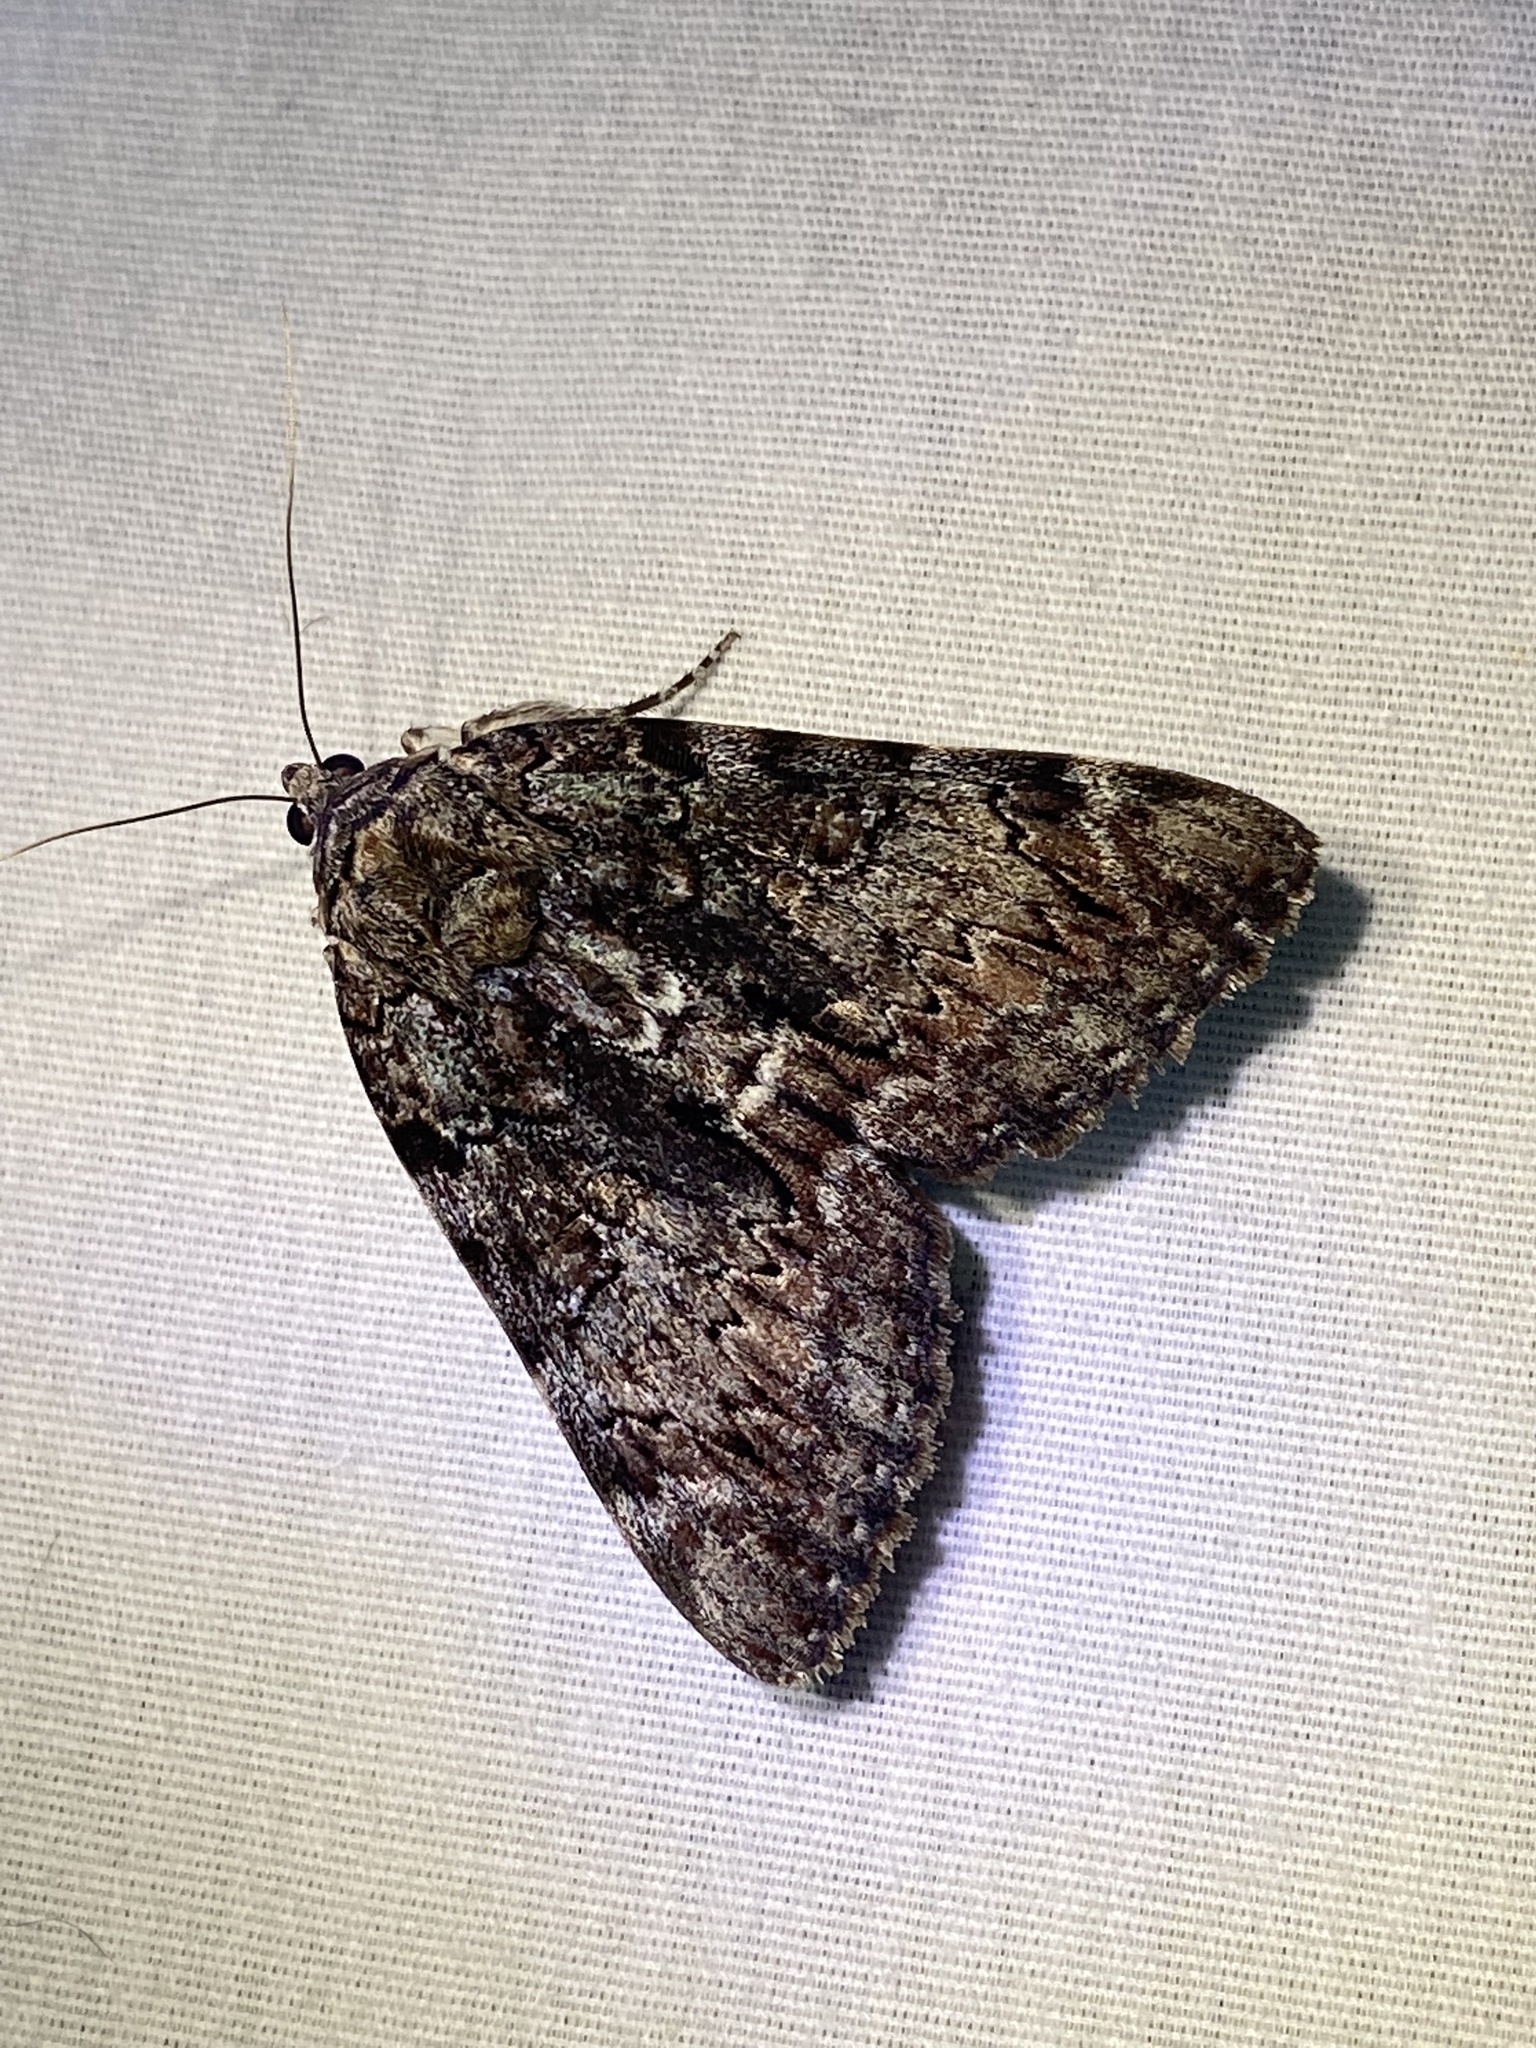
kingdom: Animalia
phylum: Arthropoda
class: Insecta
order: Lepidoptera
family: Erebidae
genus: Catocala
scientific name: Catocala lacrymosa
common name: Tearful underwing
